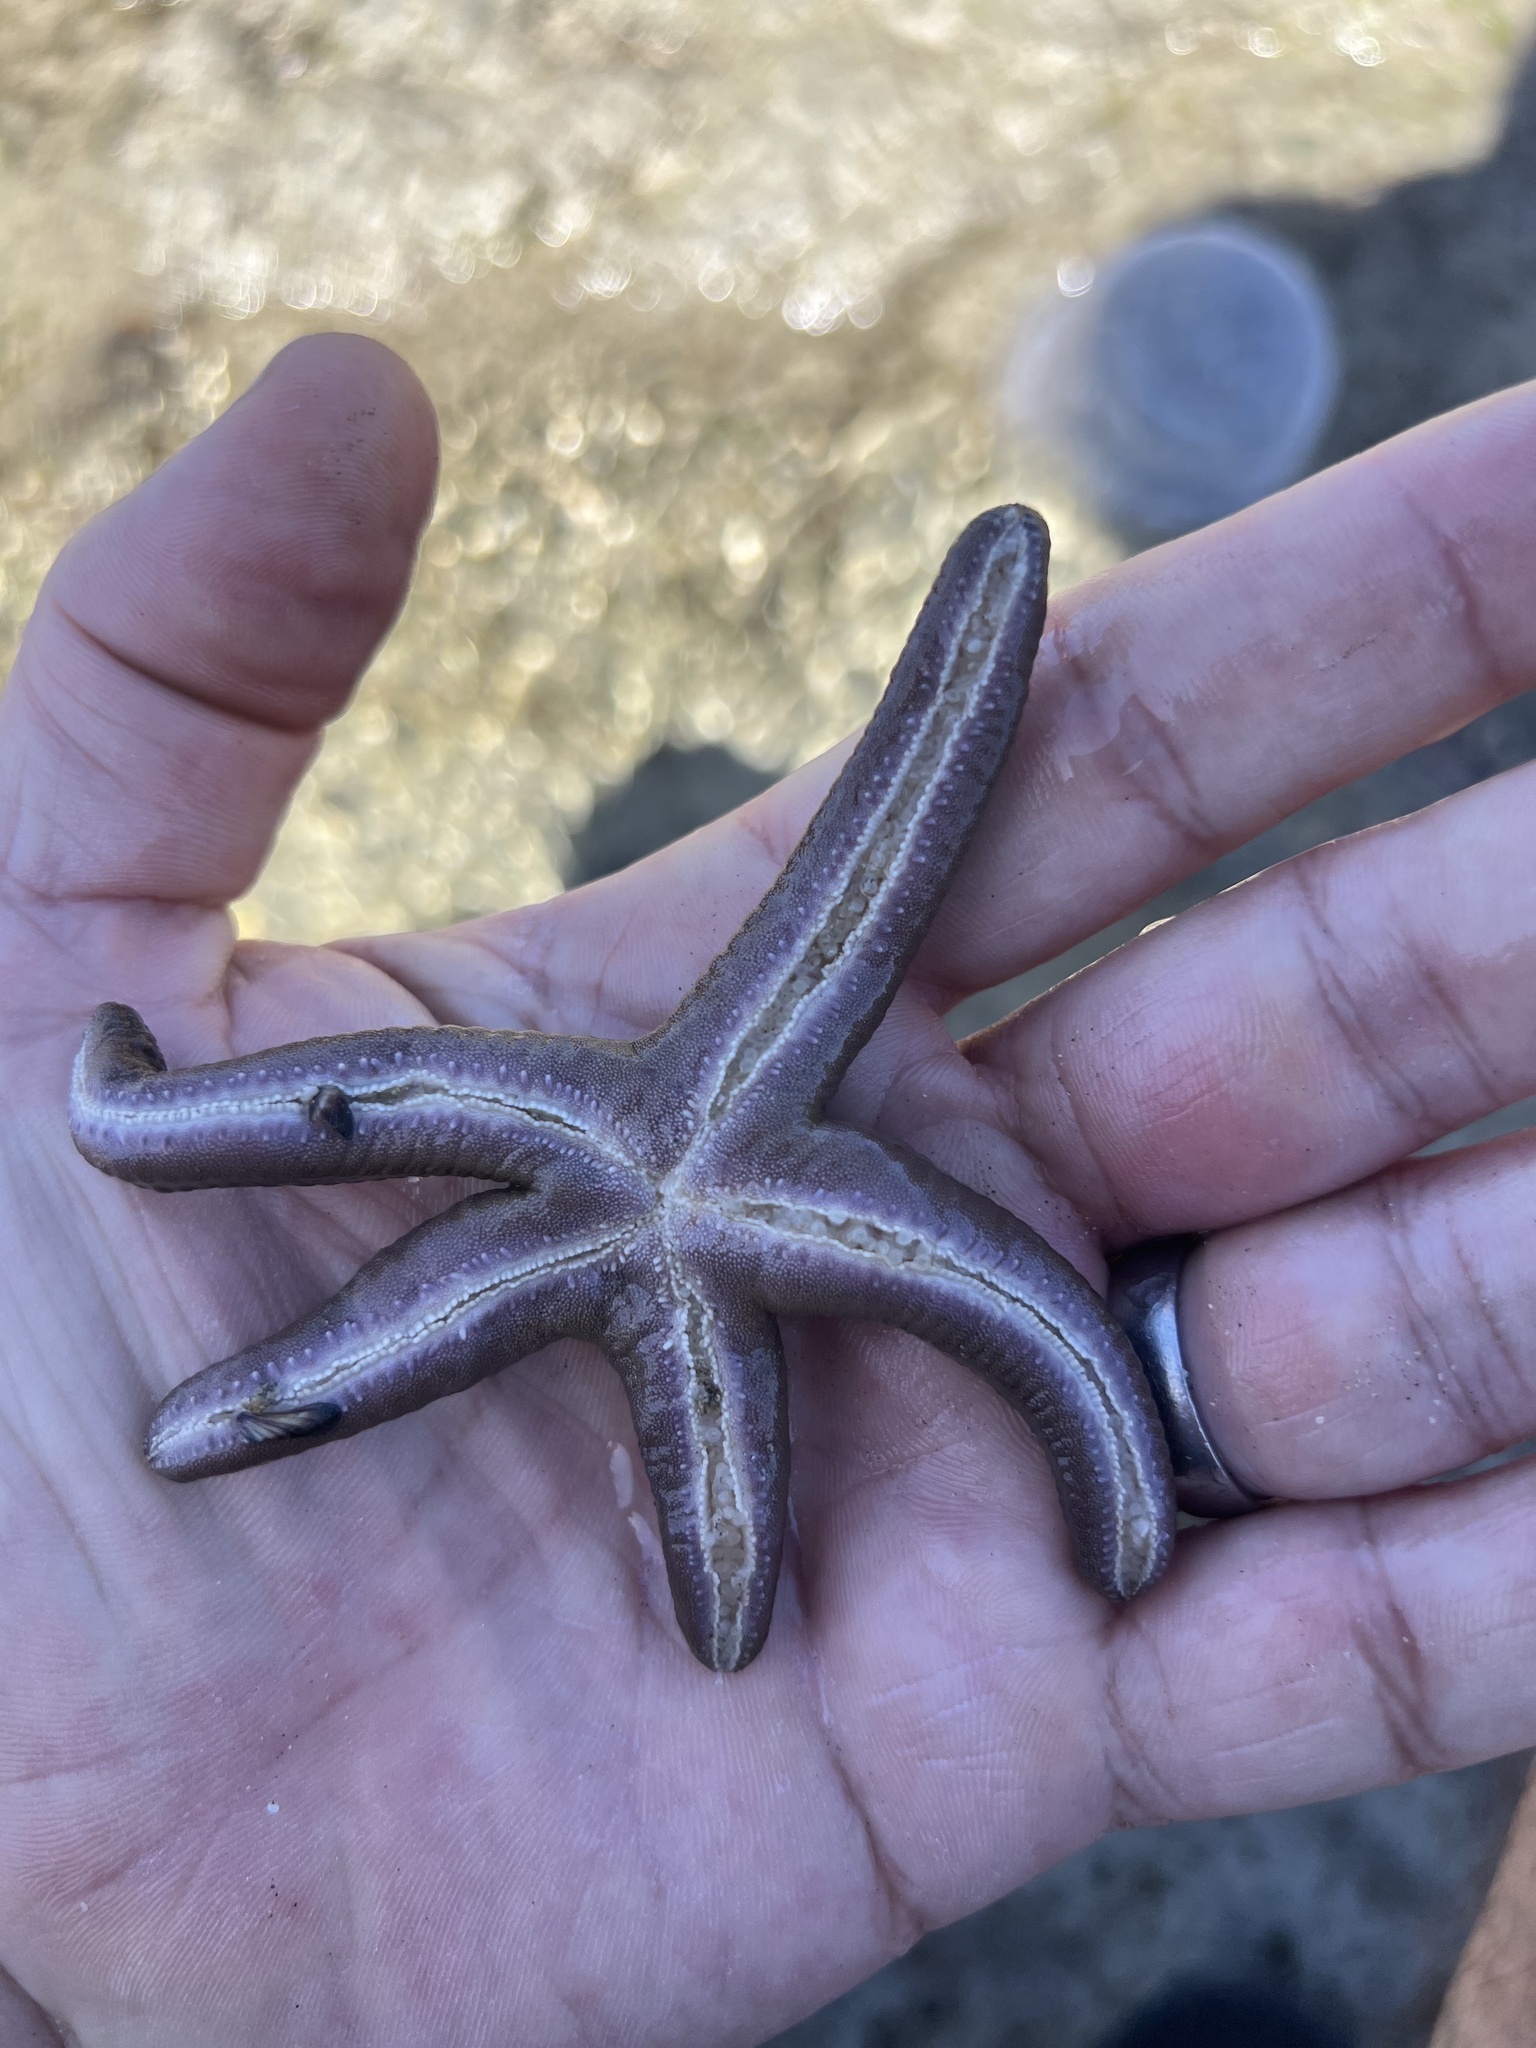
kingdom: Animalia
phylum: Echinodermata
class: Asteroidea
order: Valvatida
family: Ophidiasteridae
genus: Pharia
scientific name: Pharia pyramidata
